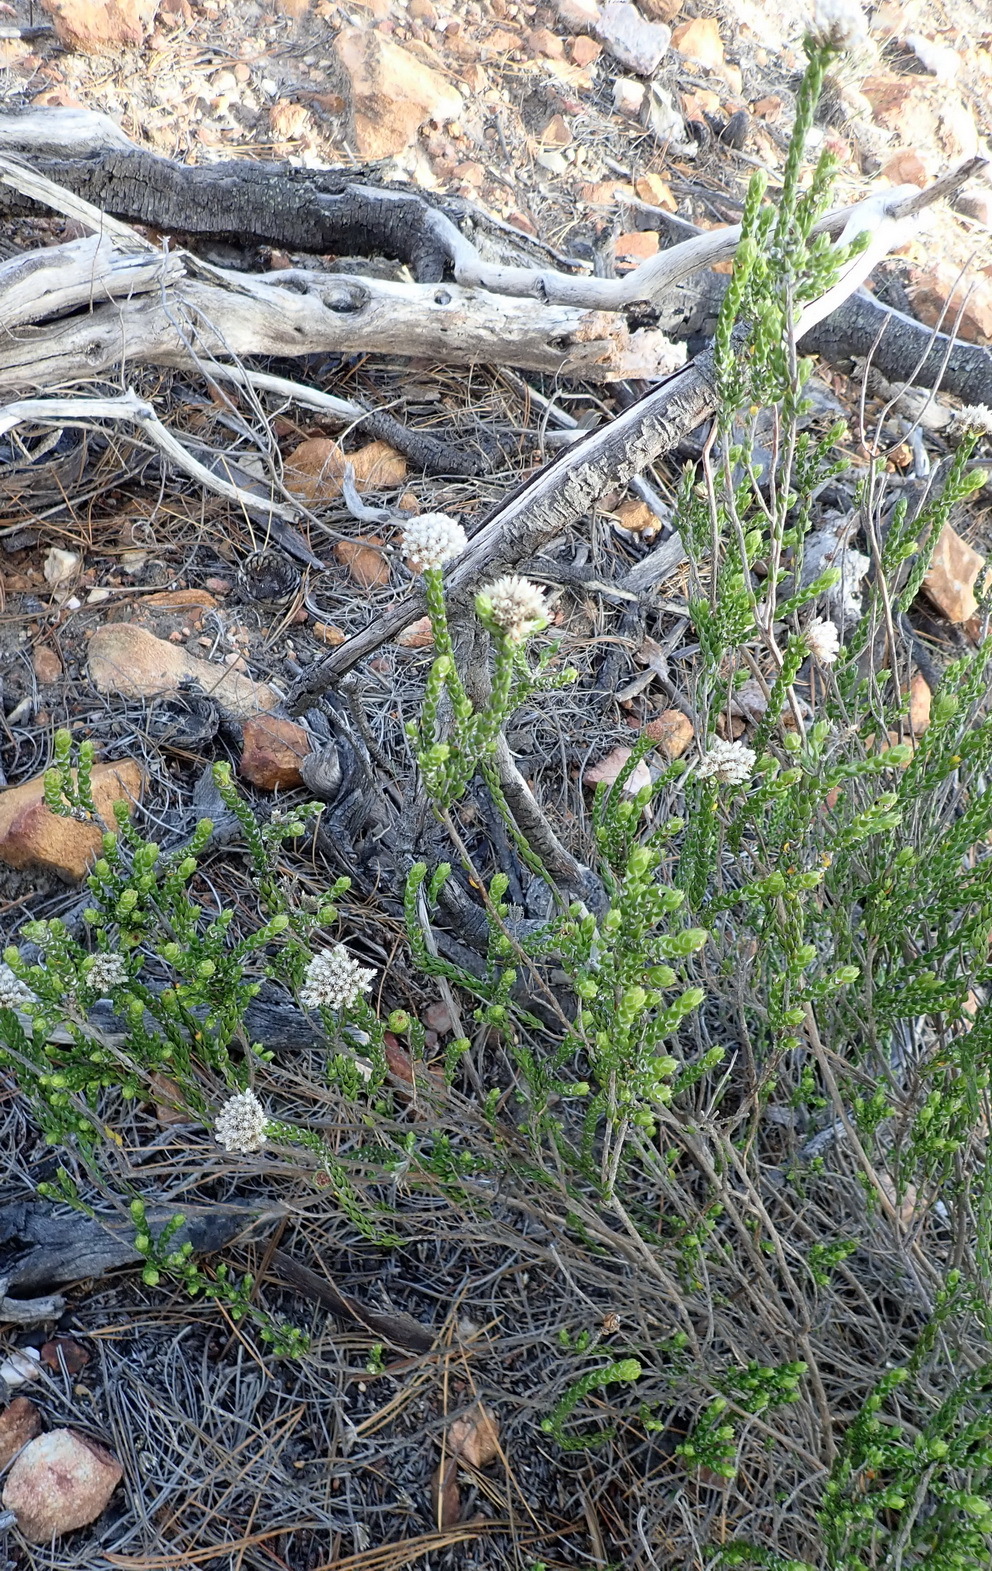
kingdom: Plantae
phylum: Tracheophyta
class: Magnoliopsida
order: Asterales
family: Asteraceae
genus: Metalasia
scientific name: Metalasia pulcherrima
